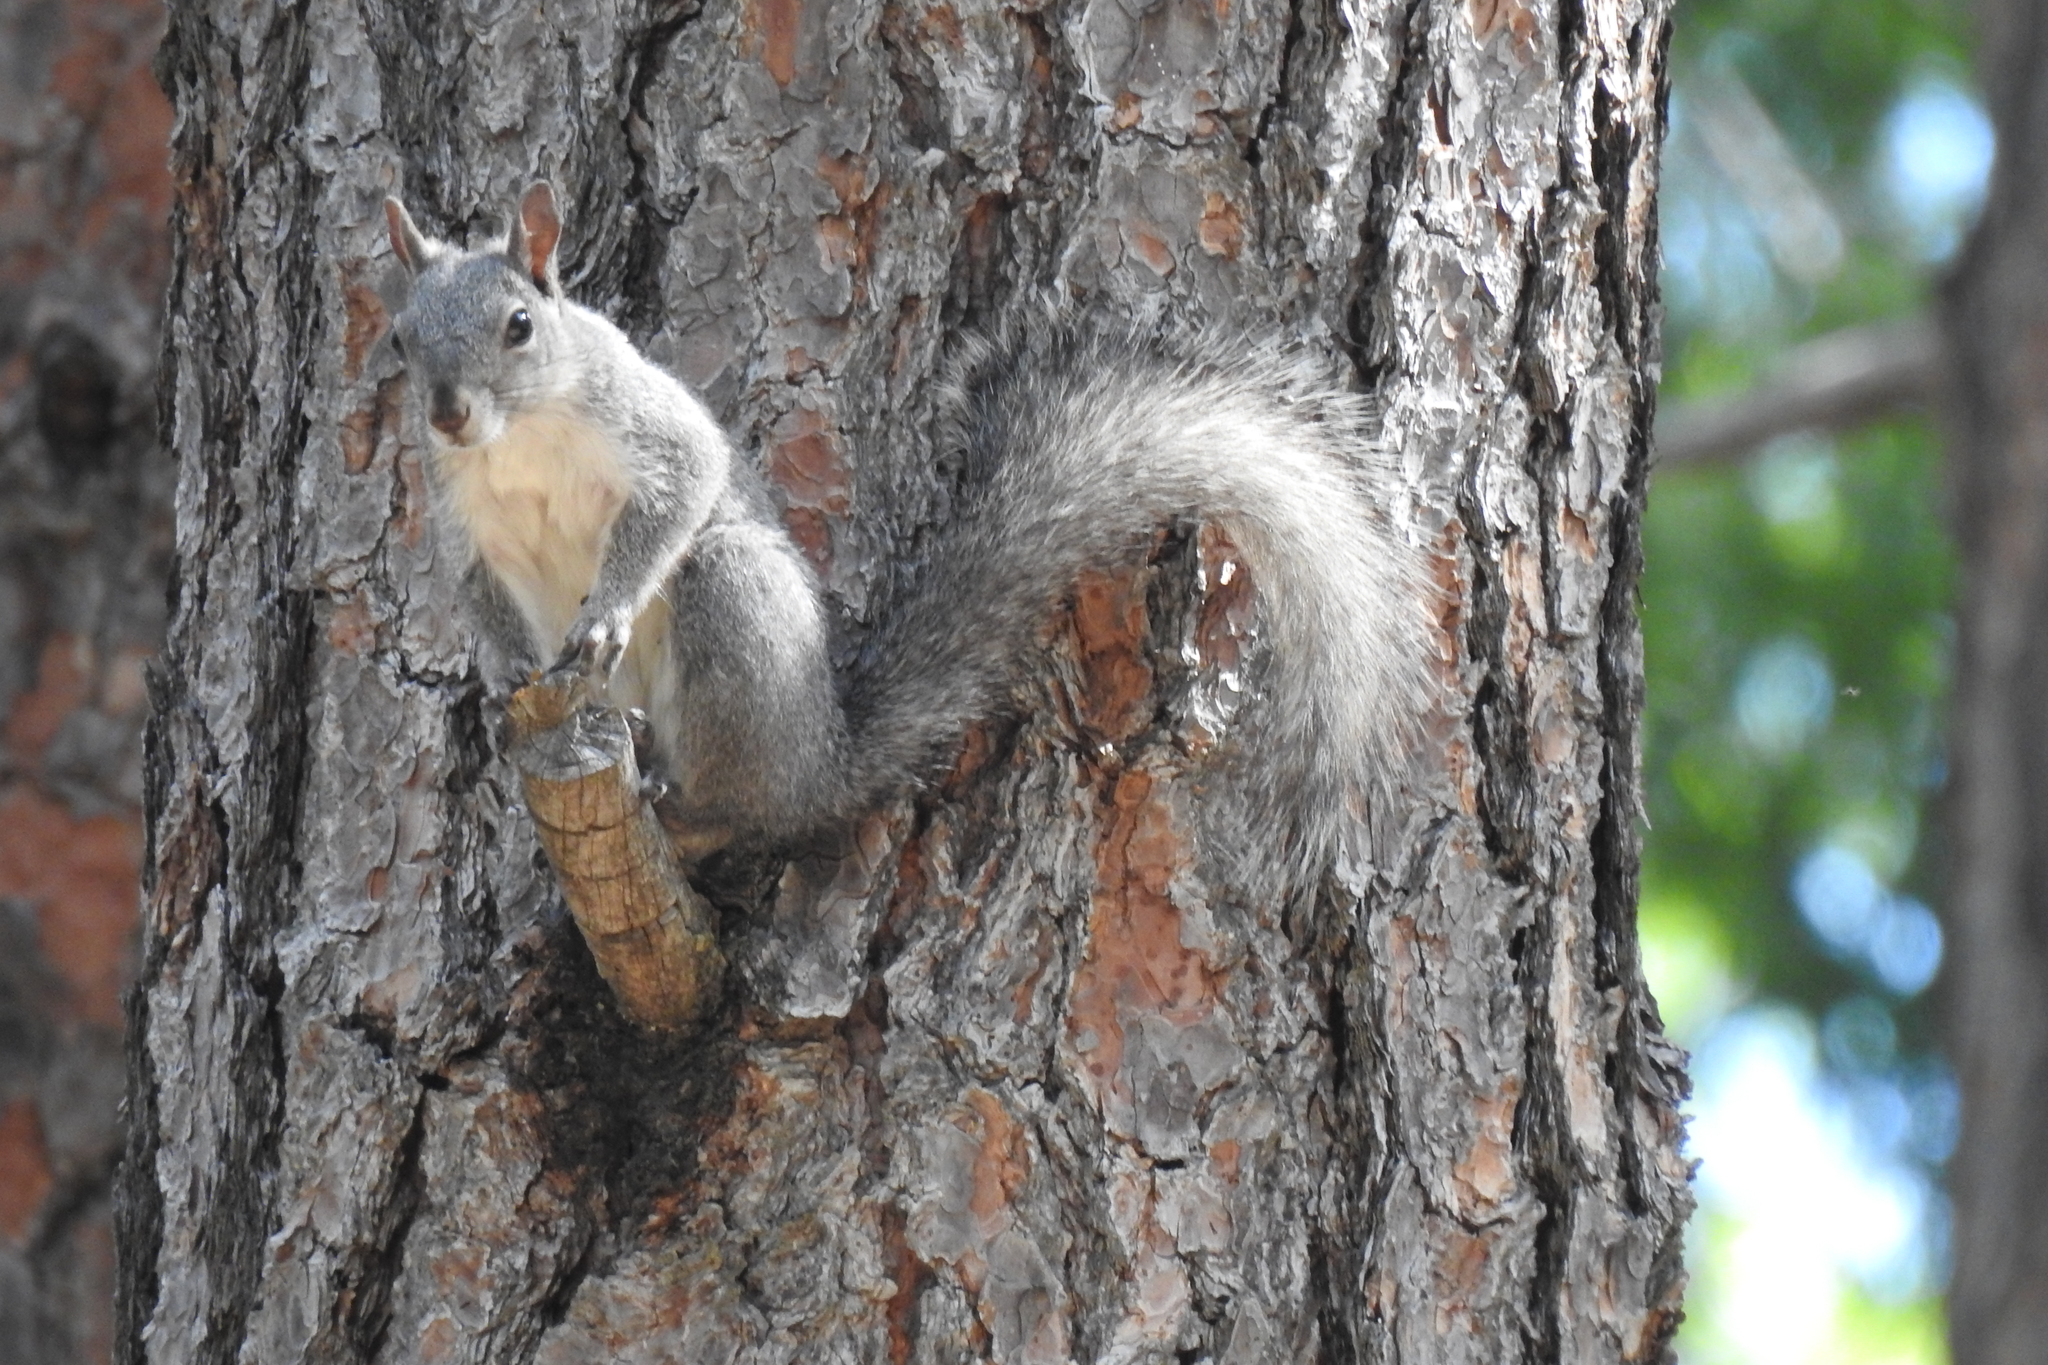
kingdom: Animalia
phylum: Chordata
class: Mammalia
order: Rodentia
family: Sciuridae
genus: Sciurus
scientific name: Sciurus griseus
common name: Western gray squirrel
